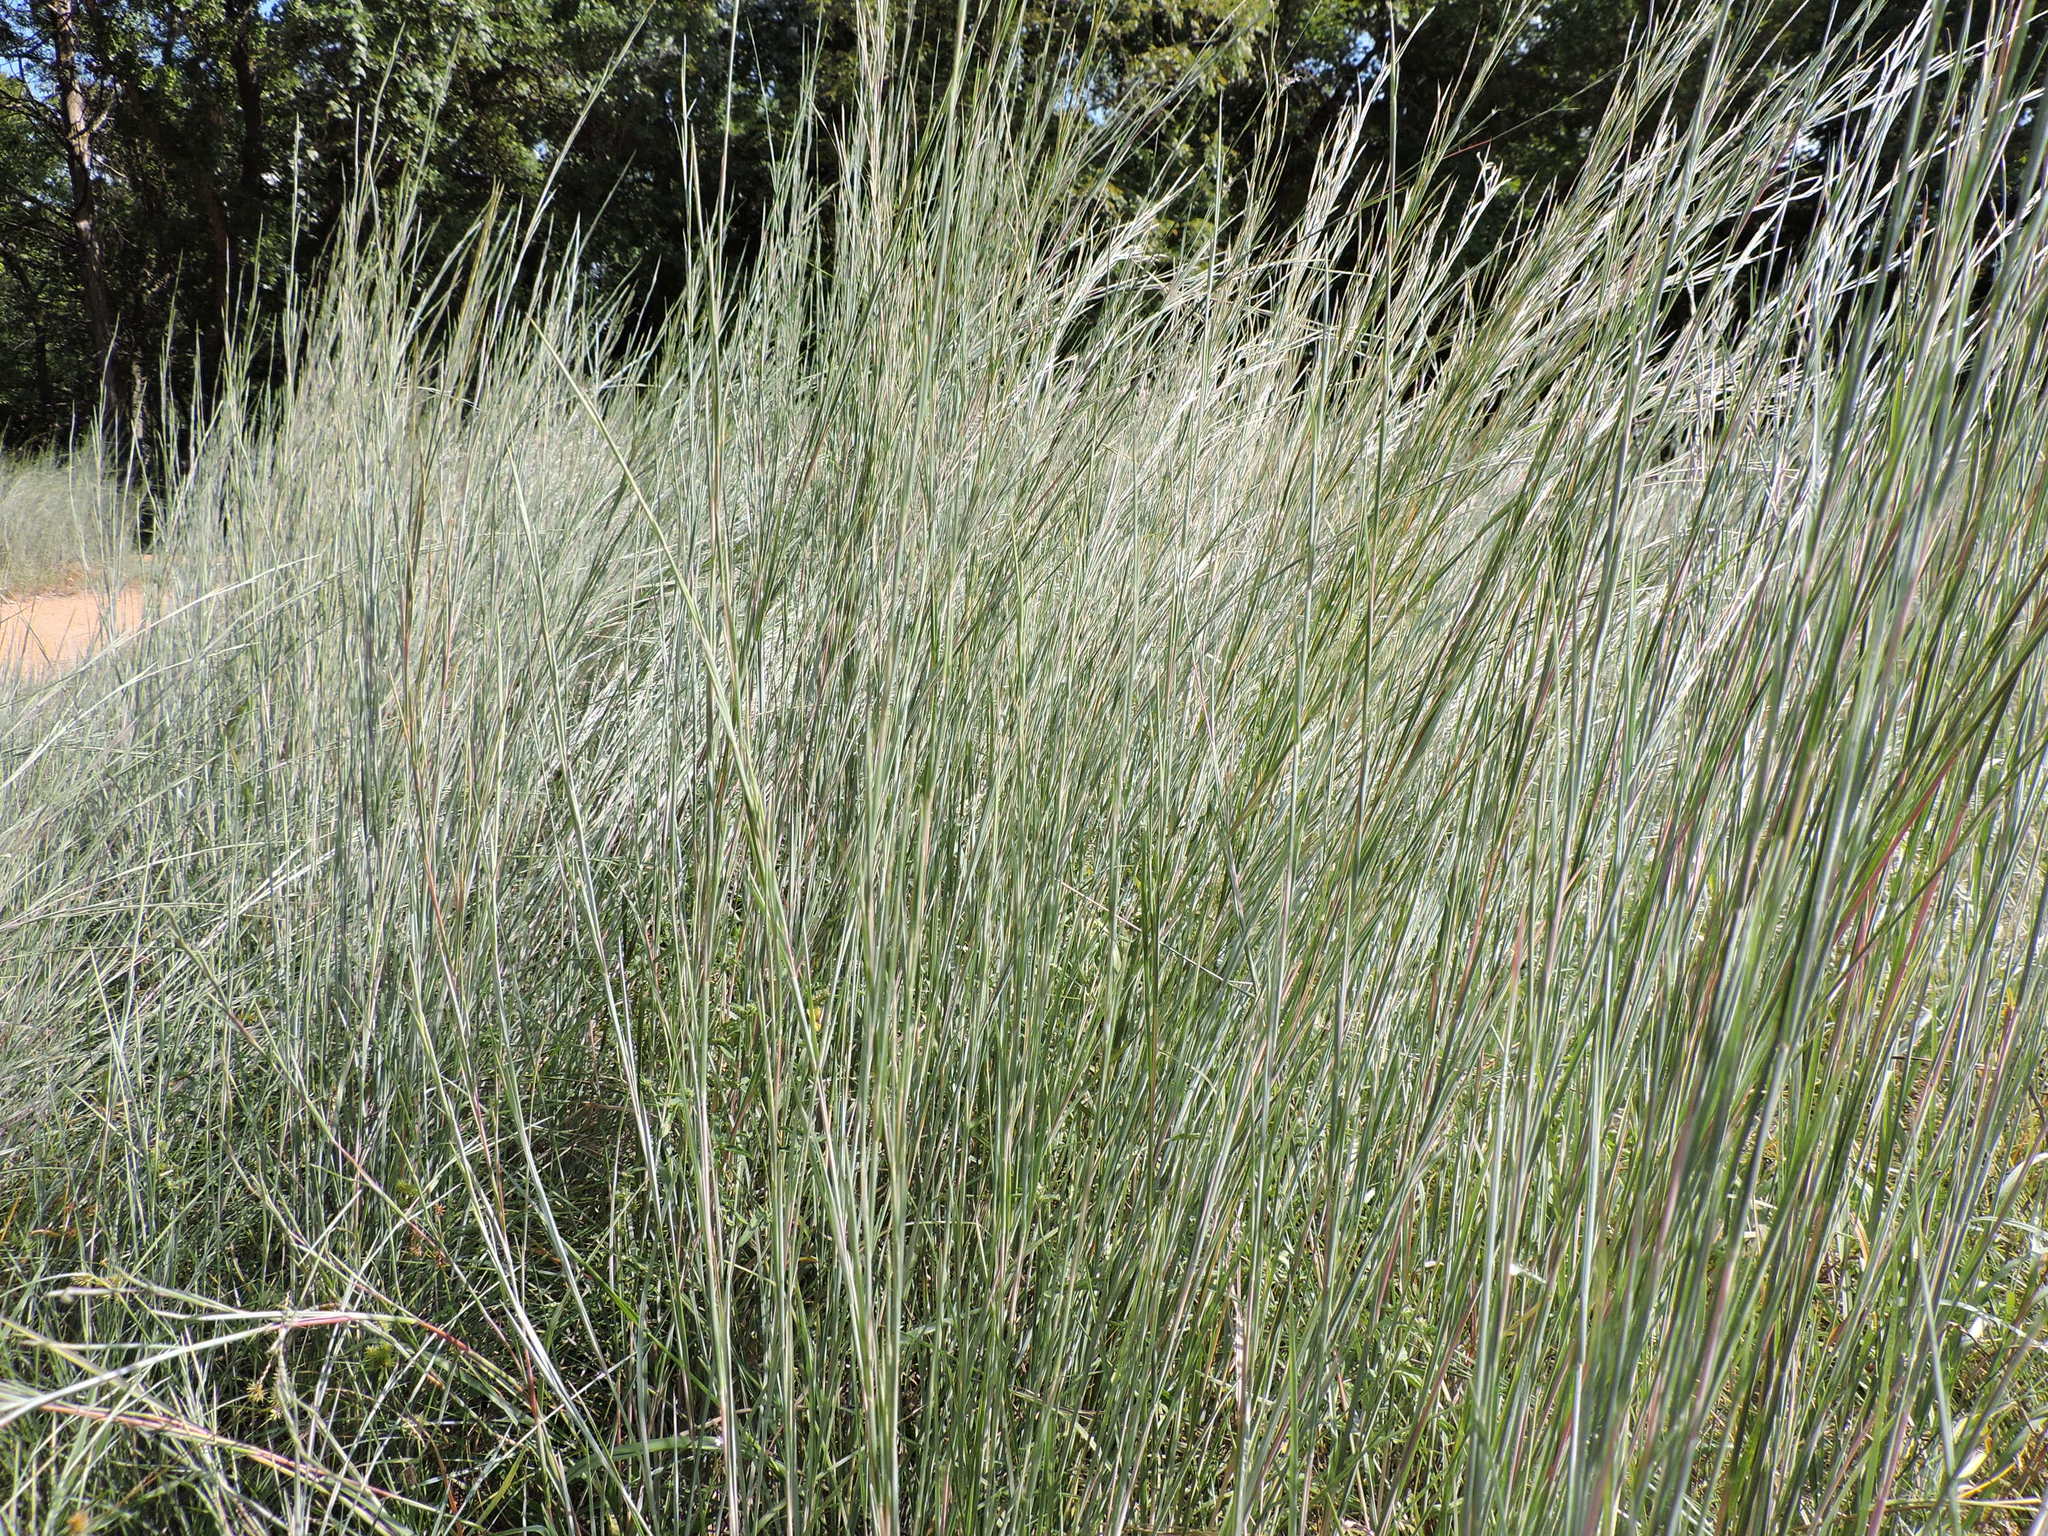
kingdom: Plantae
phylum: Tracheophyta
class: Liliopsida
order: Poales
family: Poaceae
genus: Schizachyrium
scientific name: Schizachyrium scoparium
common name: Little bluestem
